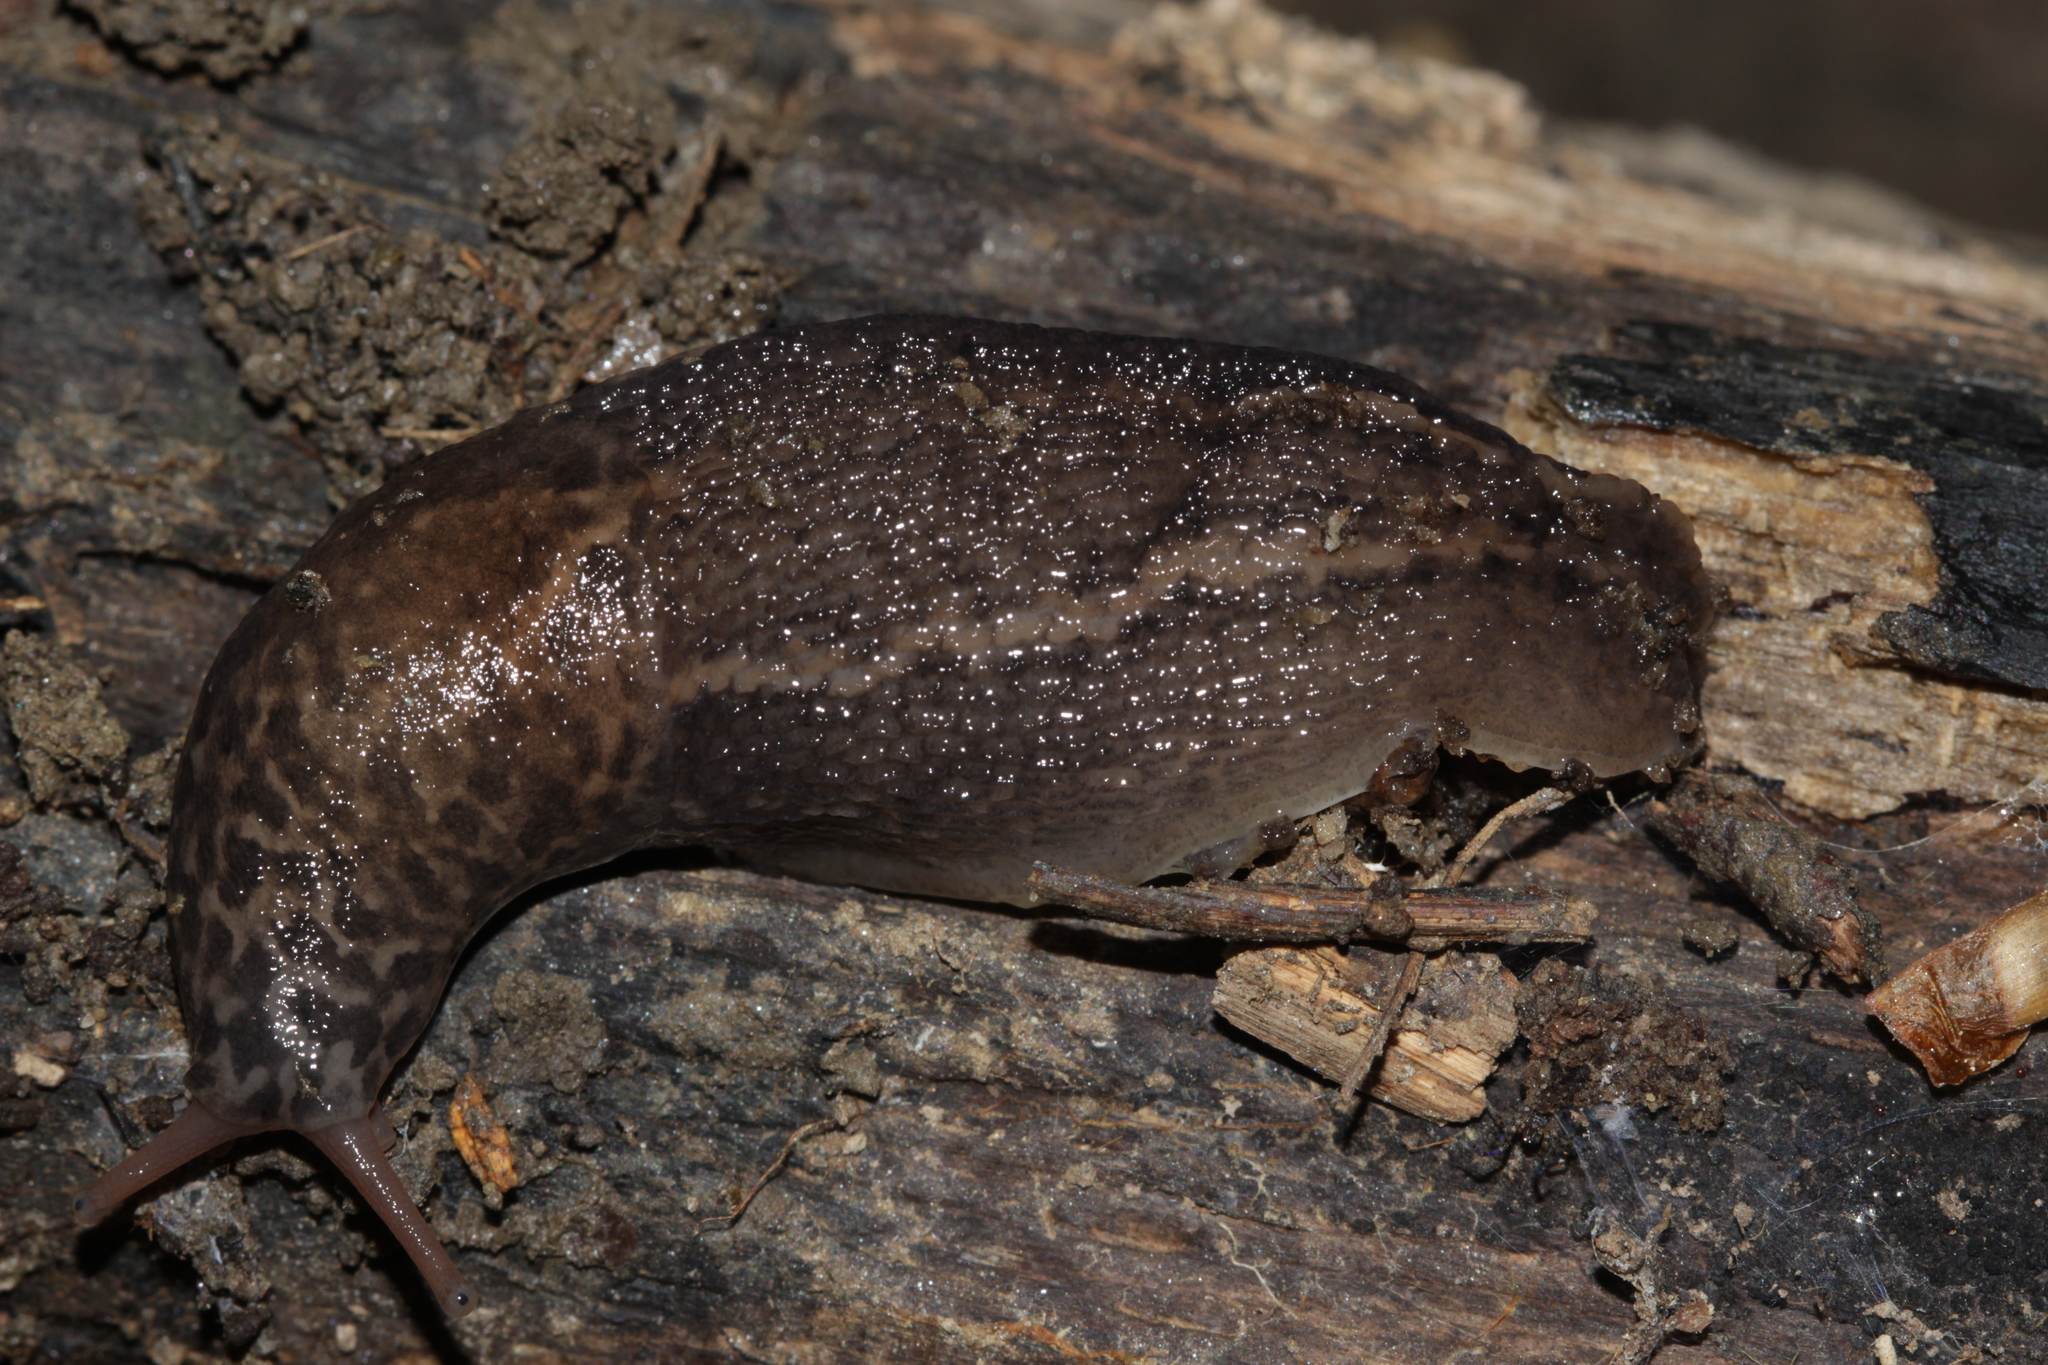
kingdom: Animalia
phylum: Mollusca
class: Gastropoda
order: Stylommatophora
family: Limacidae
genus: Limax
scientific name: Limax maximus
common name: Great grey slug
